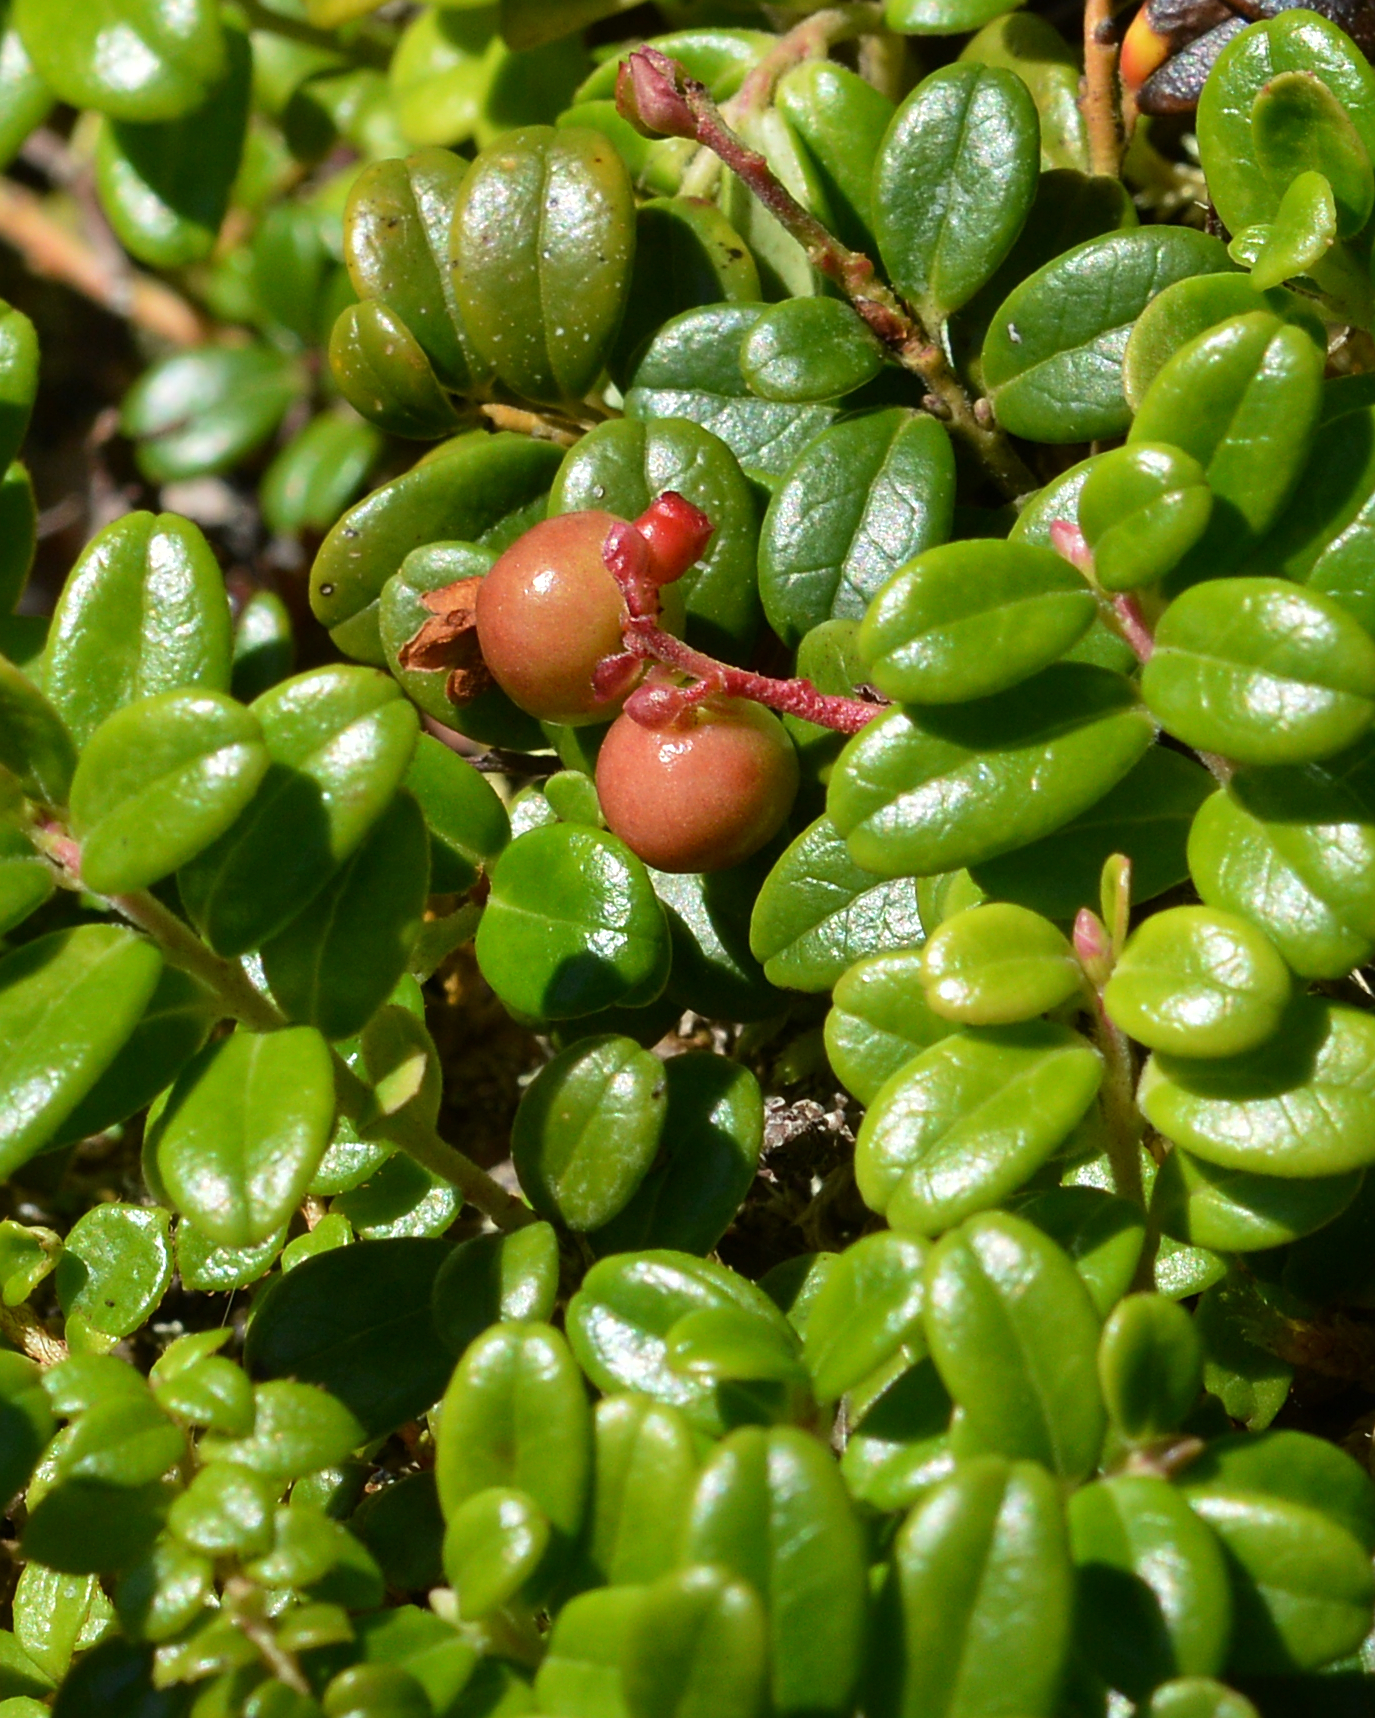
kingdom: Plantae
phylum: Tracheophyta
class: Magnoliopsida
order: Ericales
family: Ericaceae
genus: Vaccinium
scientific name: Vaccinium vitis-idaea
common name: Cowberry
